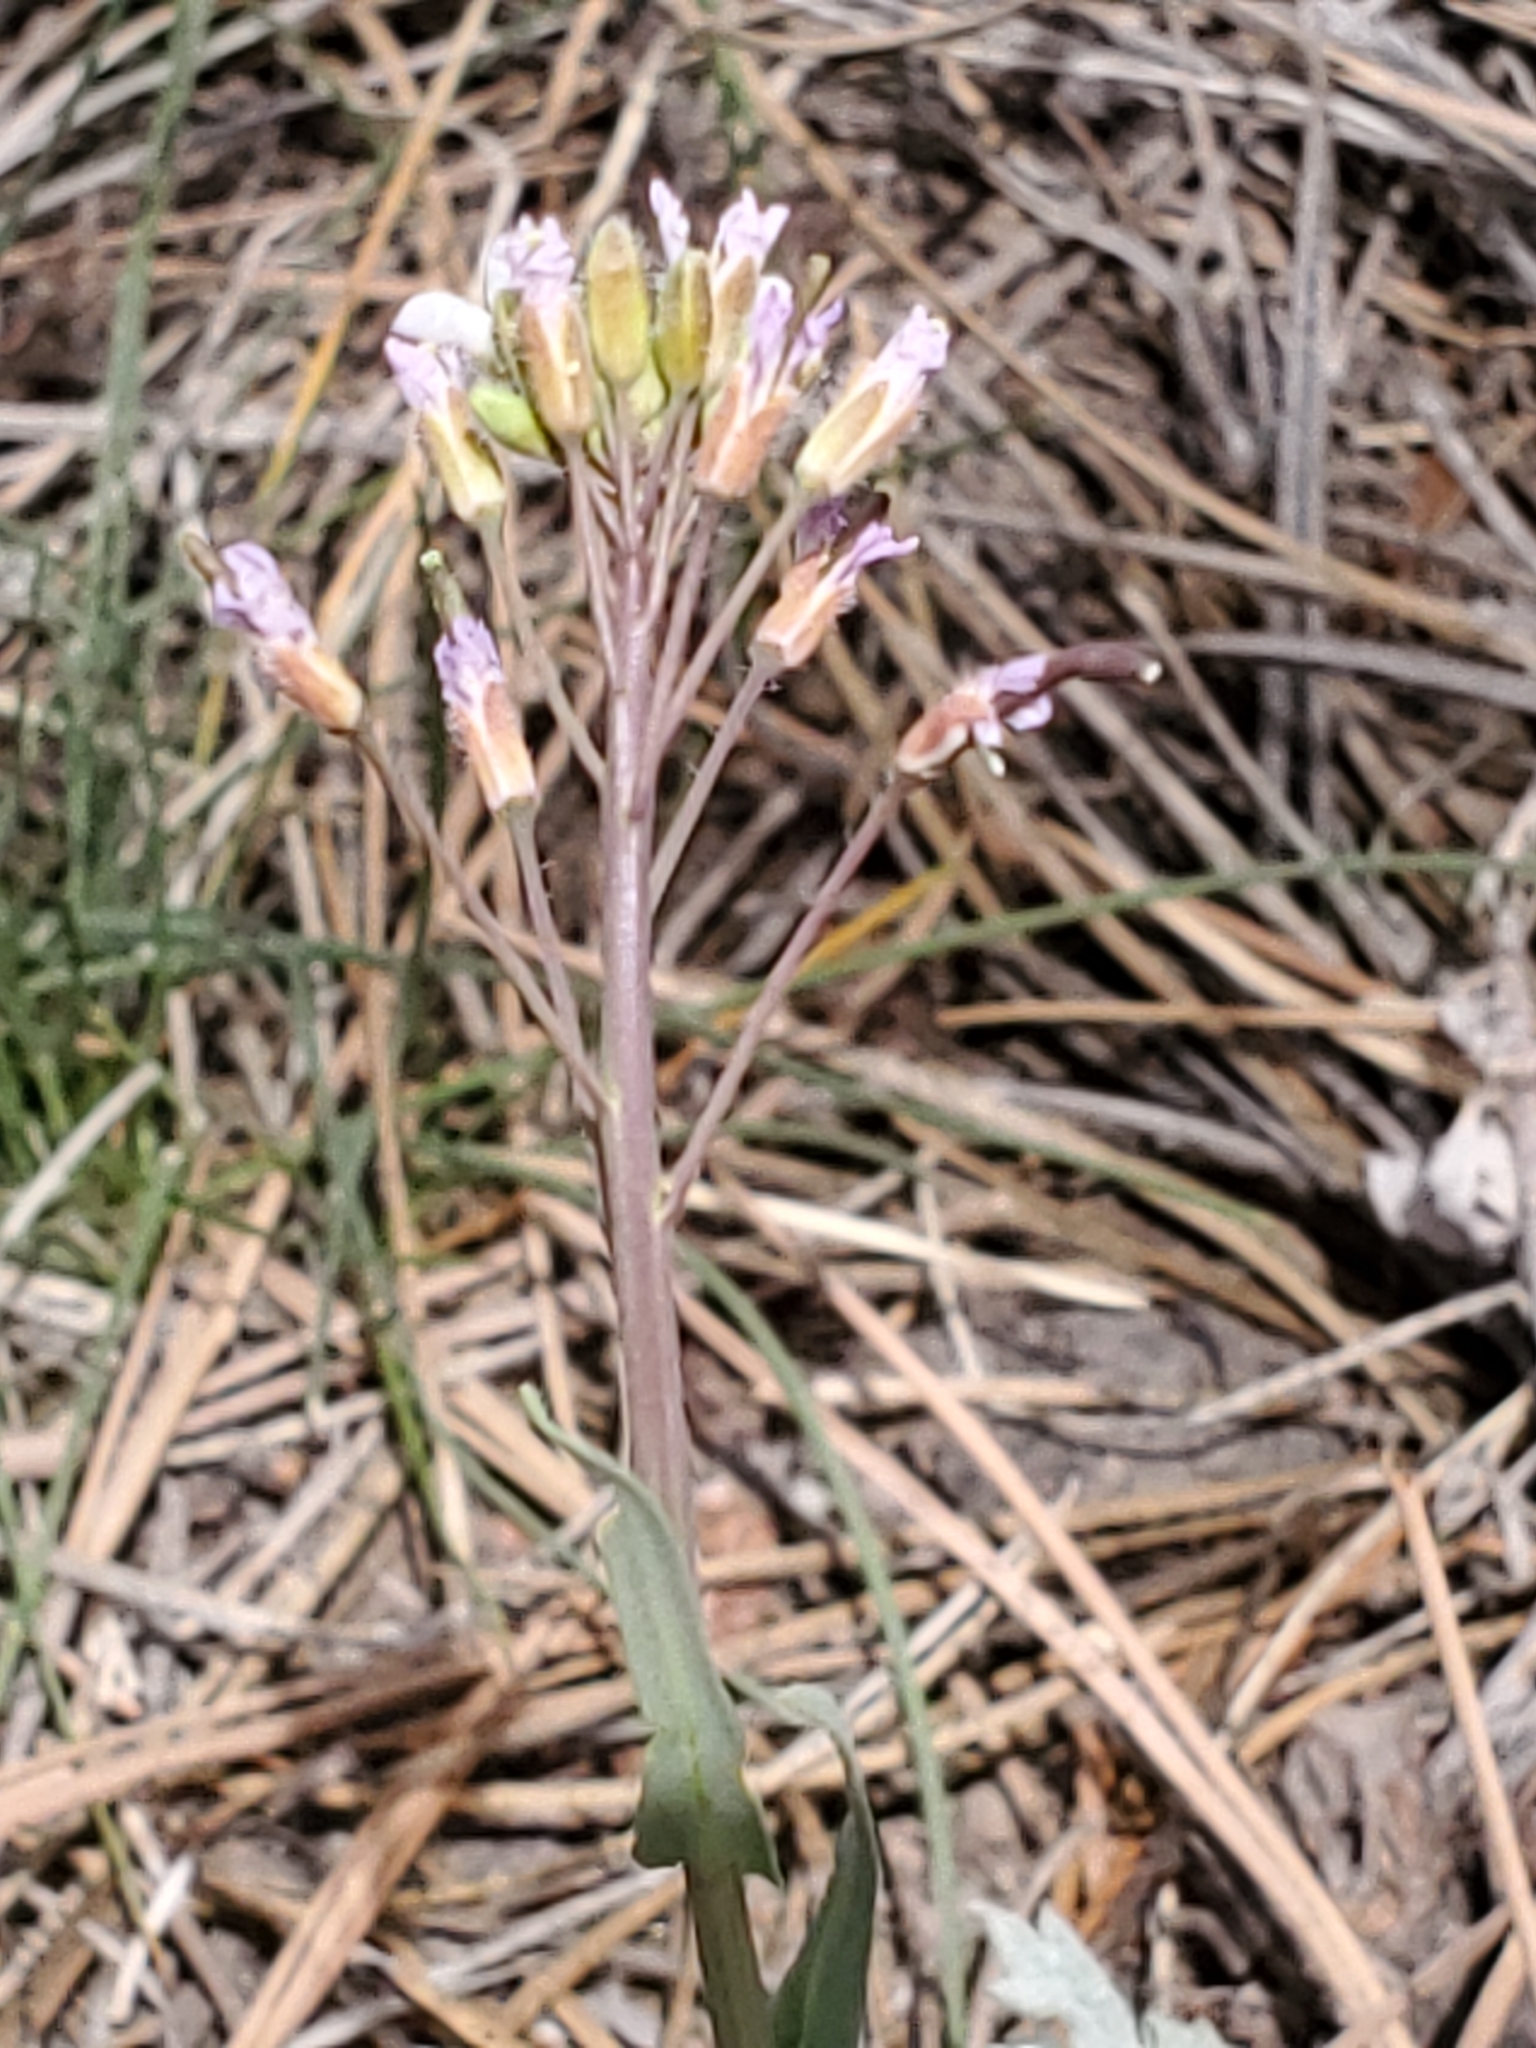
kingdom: Plantae
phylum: Tracheophyta
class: Magnoliopsida
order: Brassicales
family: Brassicaceae
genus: Boechera
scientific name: Boechera perennans
